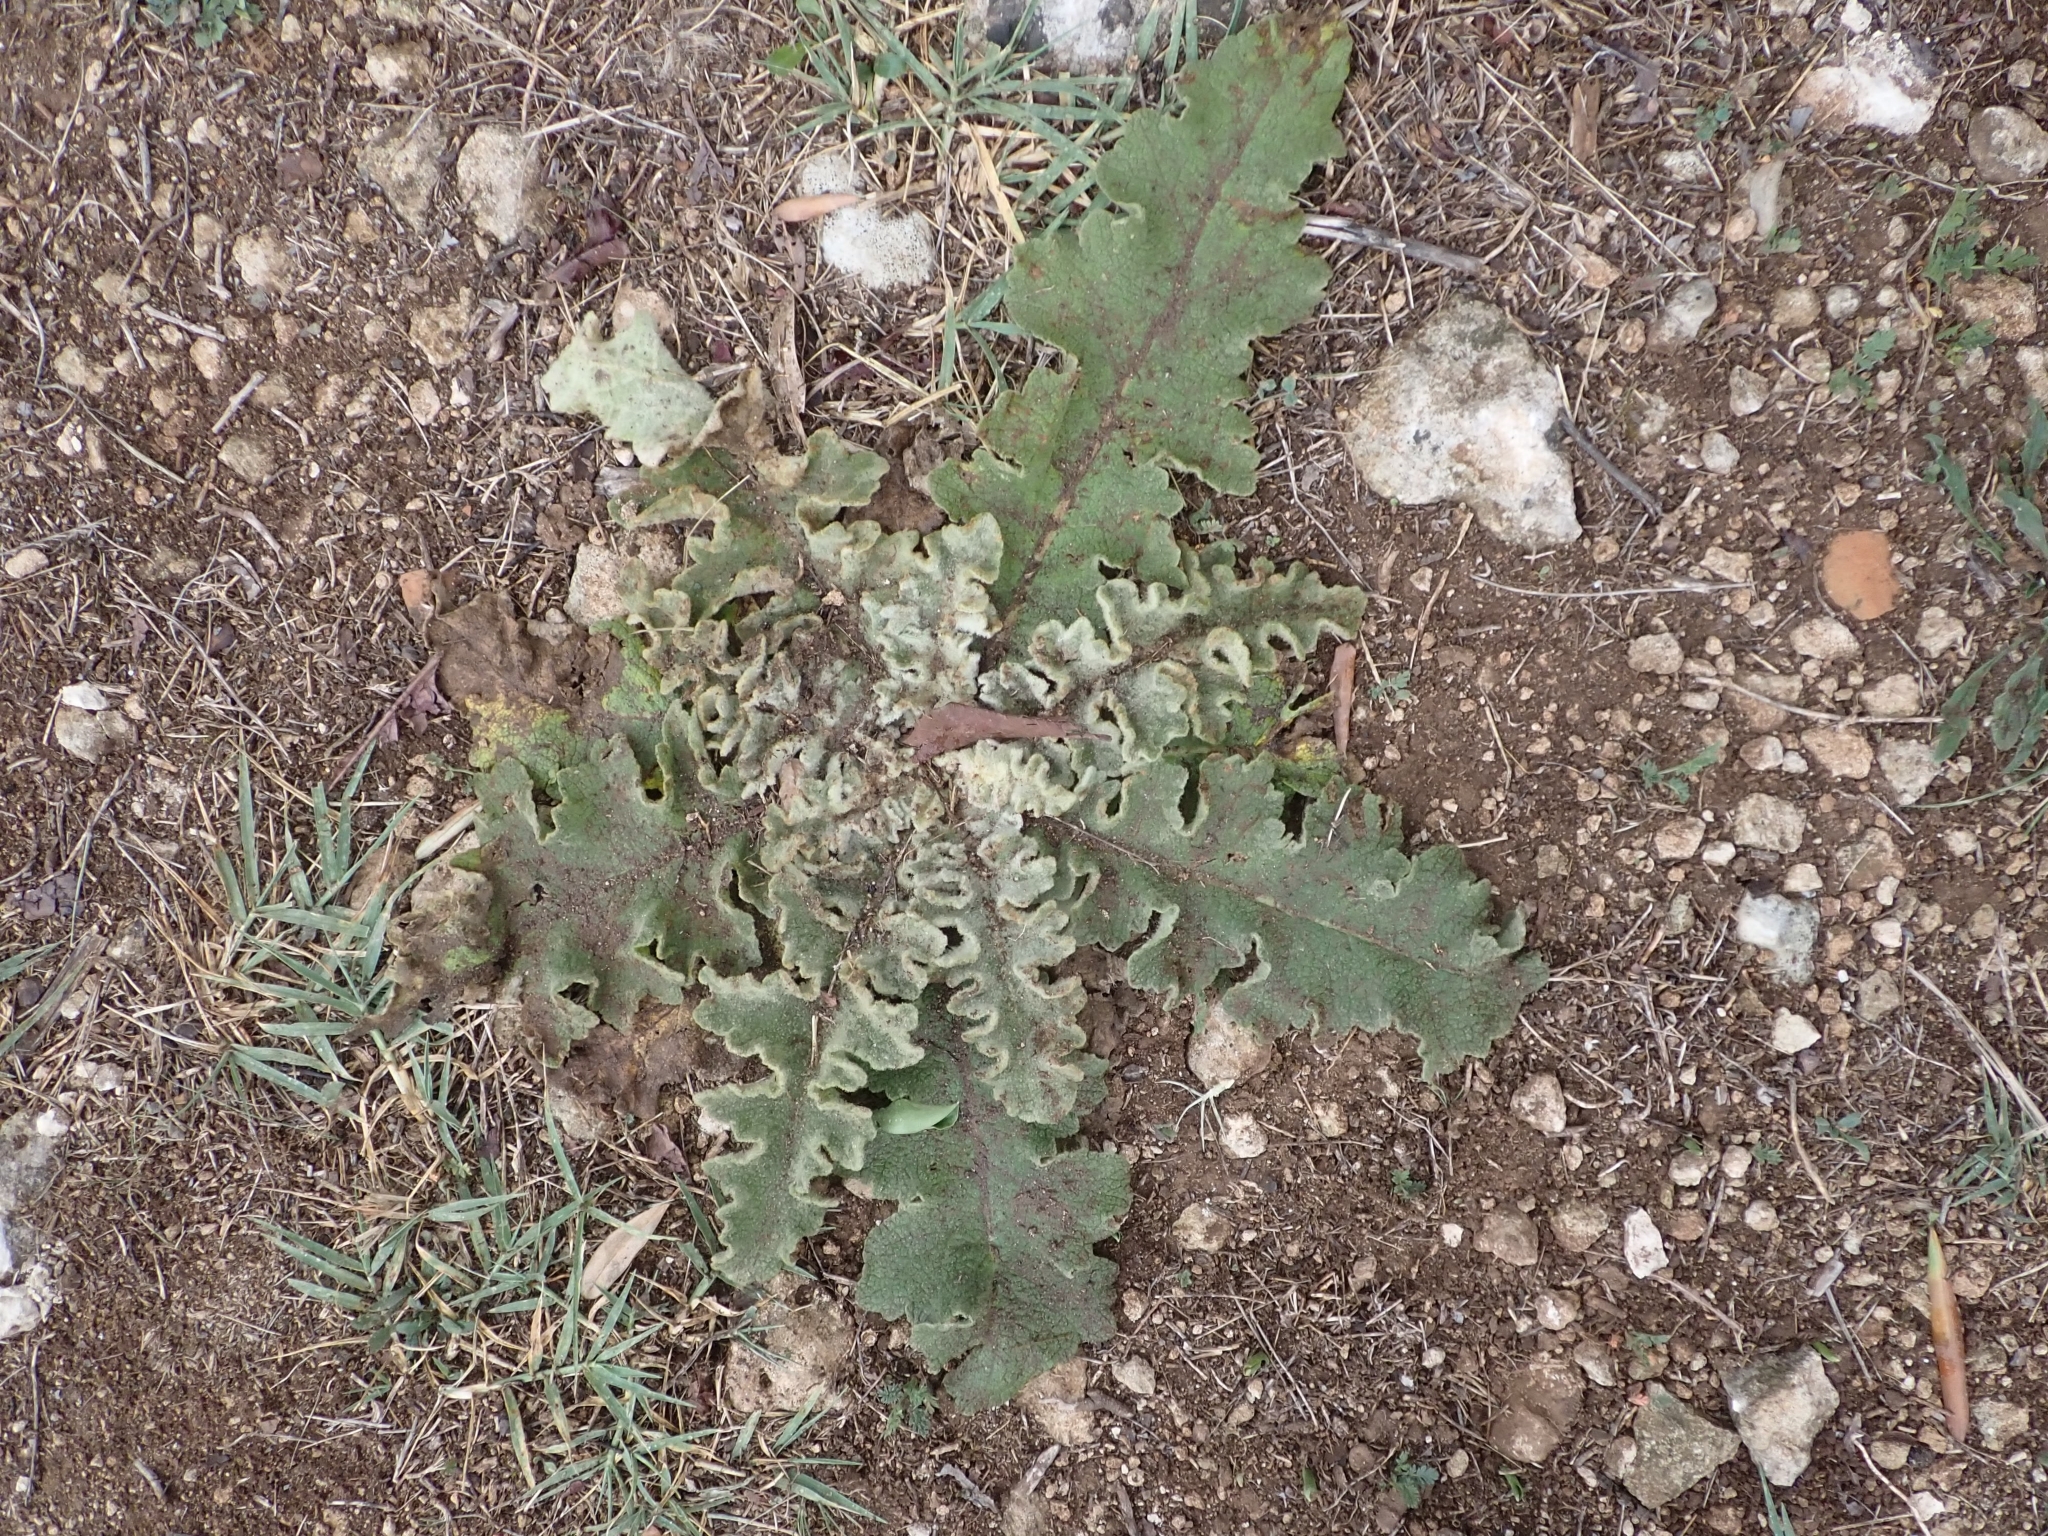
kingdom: Plantae
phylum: Tracheophyta
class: Magnoliopsida
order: Lamiales
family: Scrophulariaceae
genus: Verbascum
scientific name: Verbascum sinuatum
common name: Wavyleaf mullein
